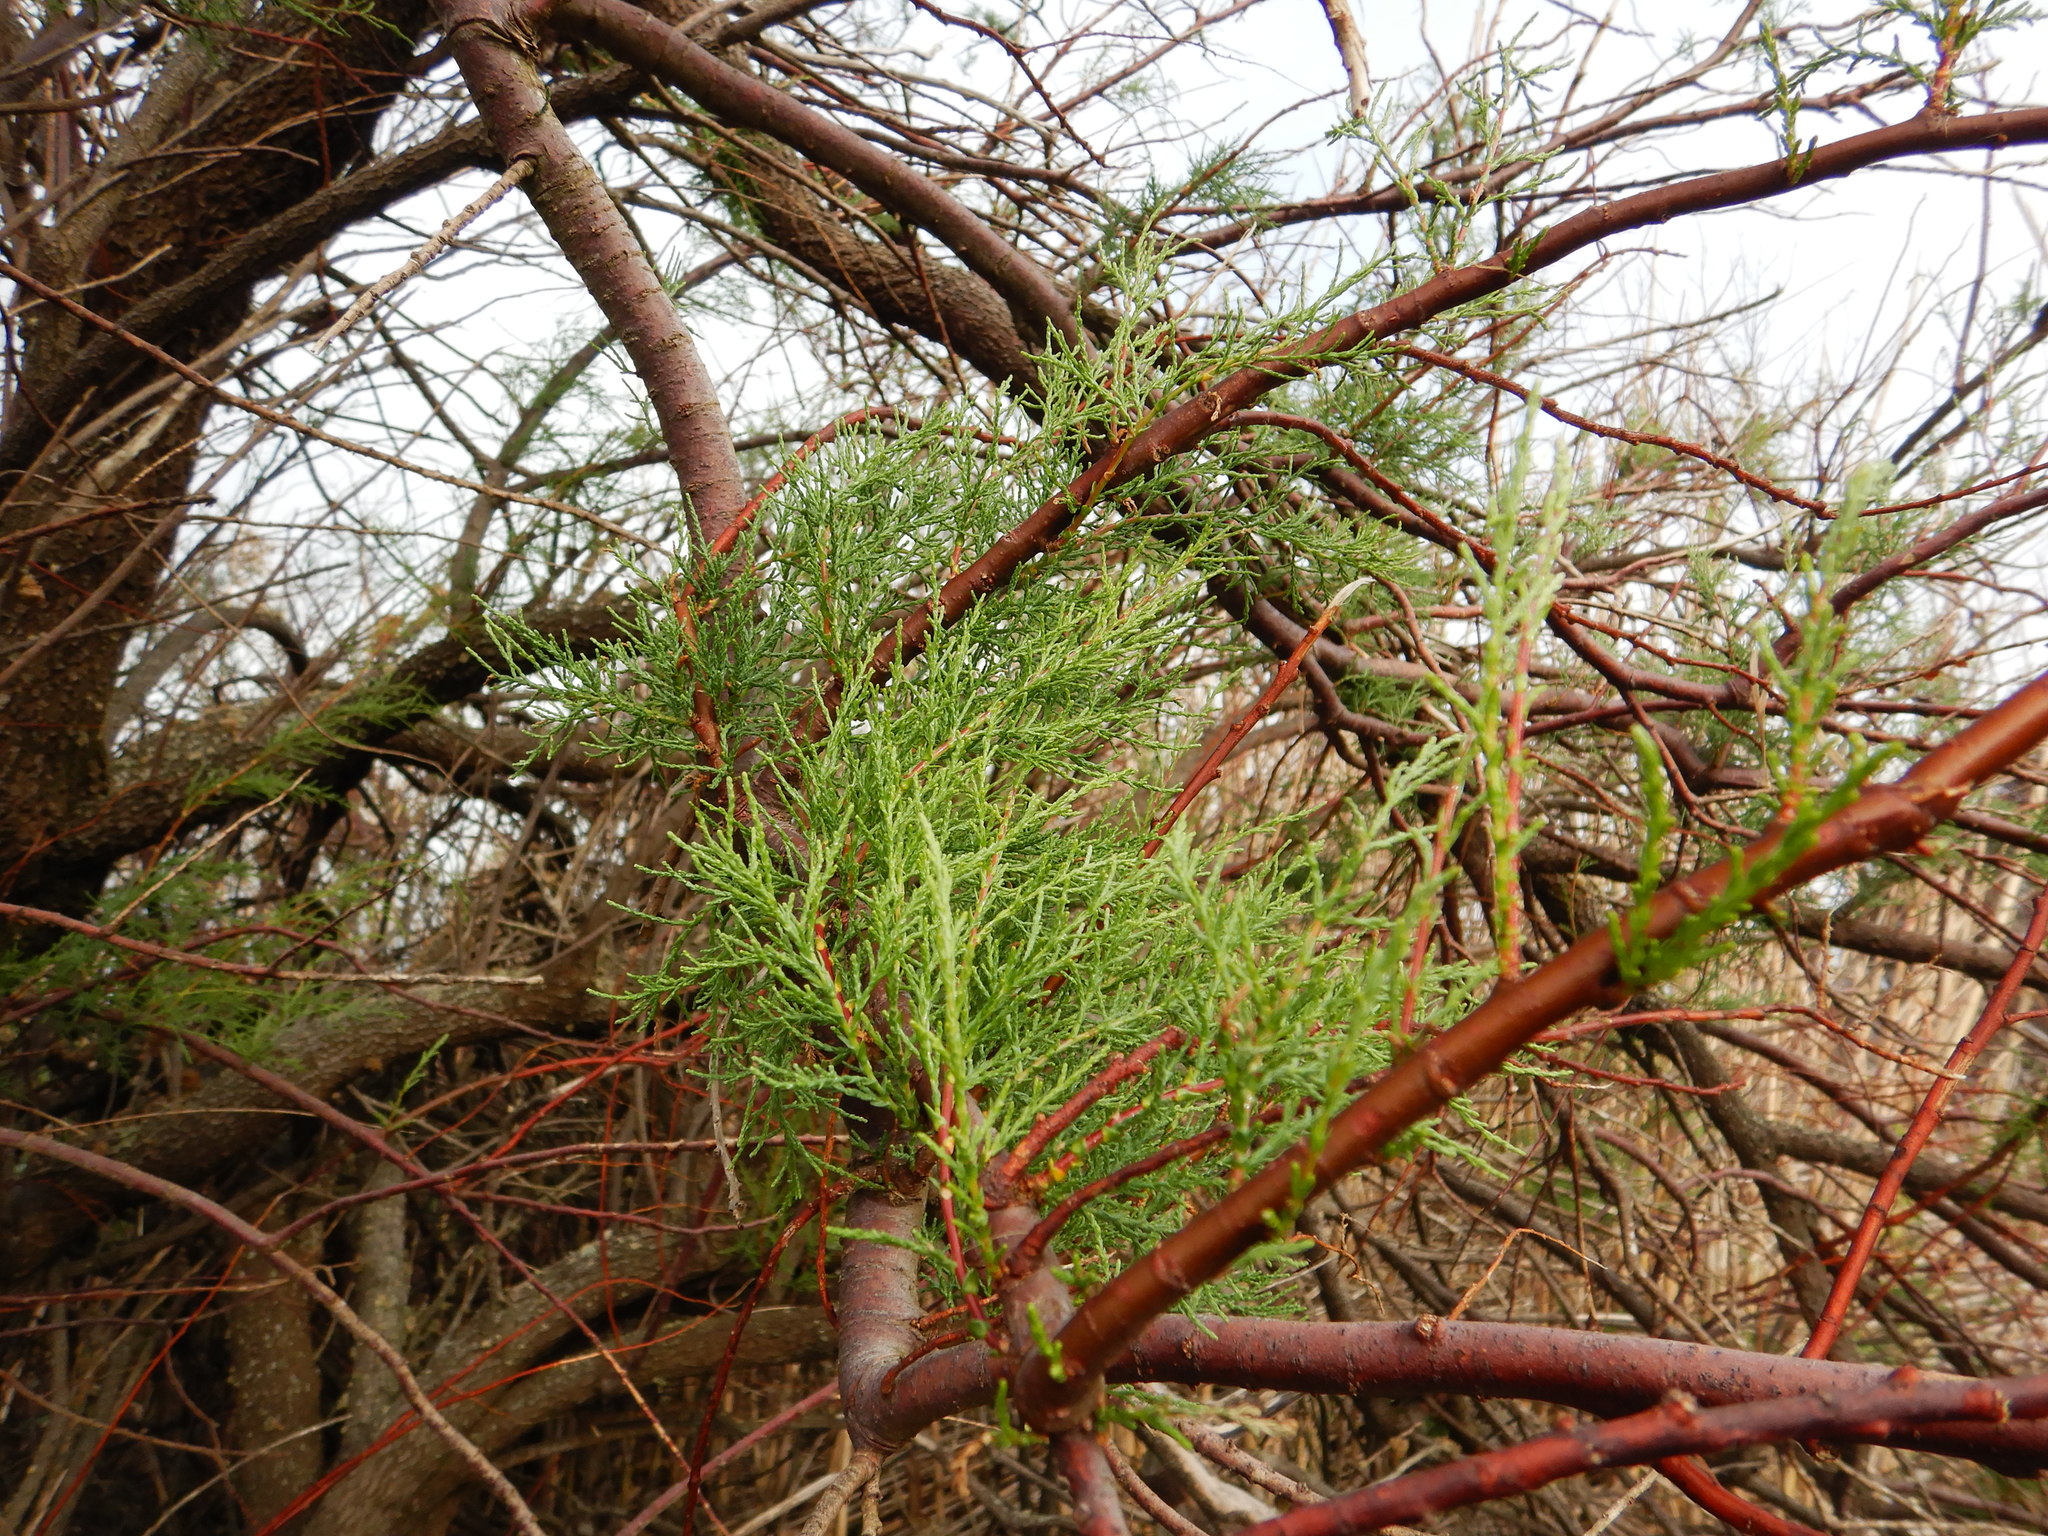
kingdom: Plantae
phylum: Tracheophyta
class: Magnoliopsida
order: Caryophyllales
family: Tamaricaceae
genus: Tamarix
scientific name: Tamarix africana
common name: African tamarisk
